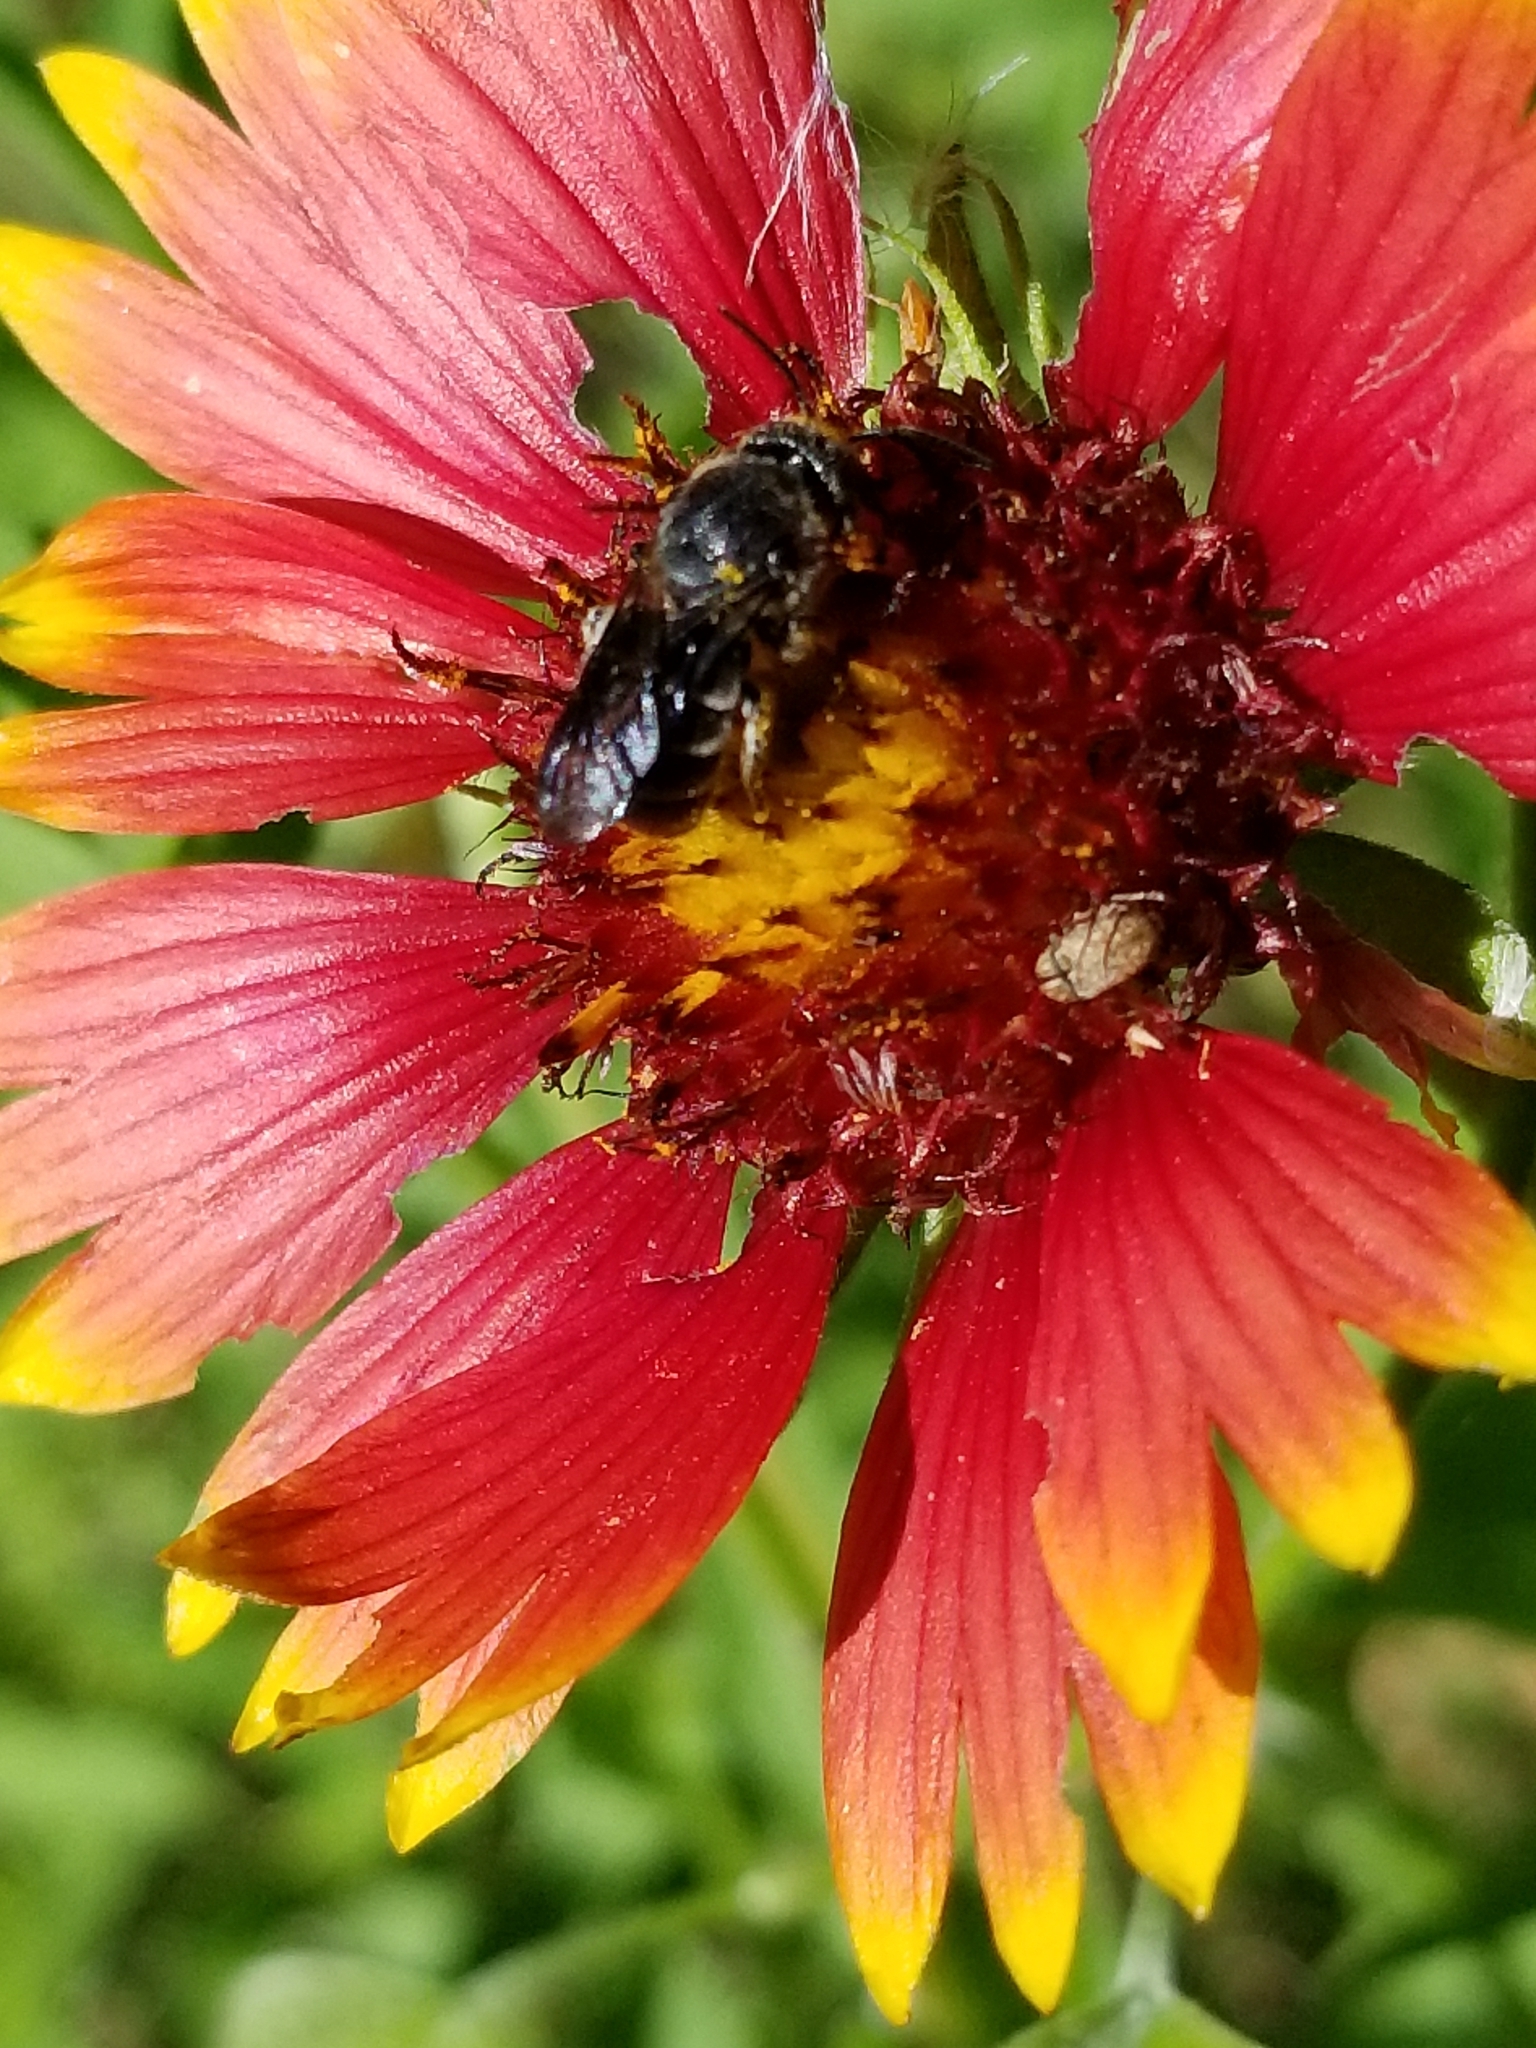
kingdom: Animalia
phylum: Arthropoda
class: Insecta
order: Hymenoptera
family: Megachilidae
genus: Stelis
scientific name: Stelis diversicolor
